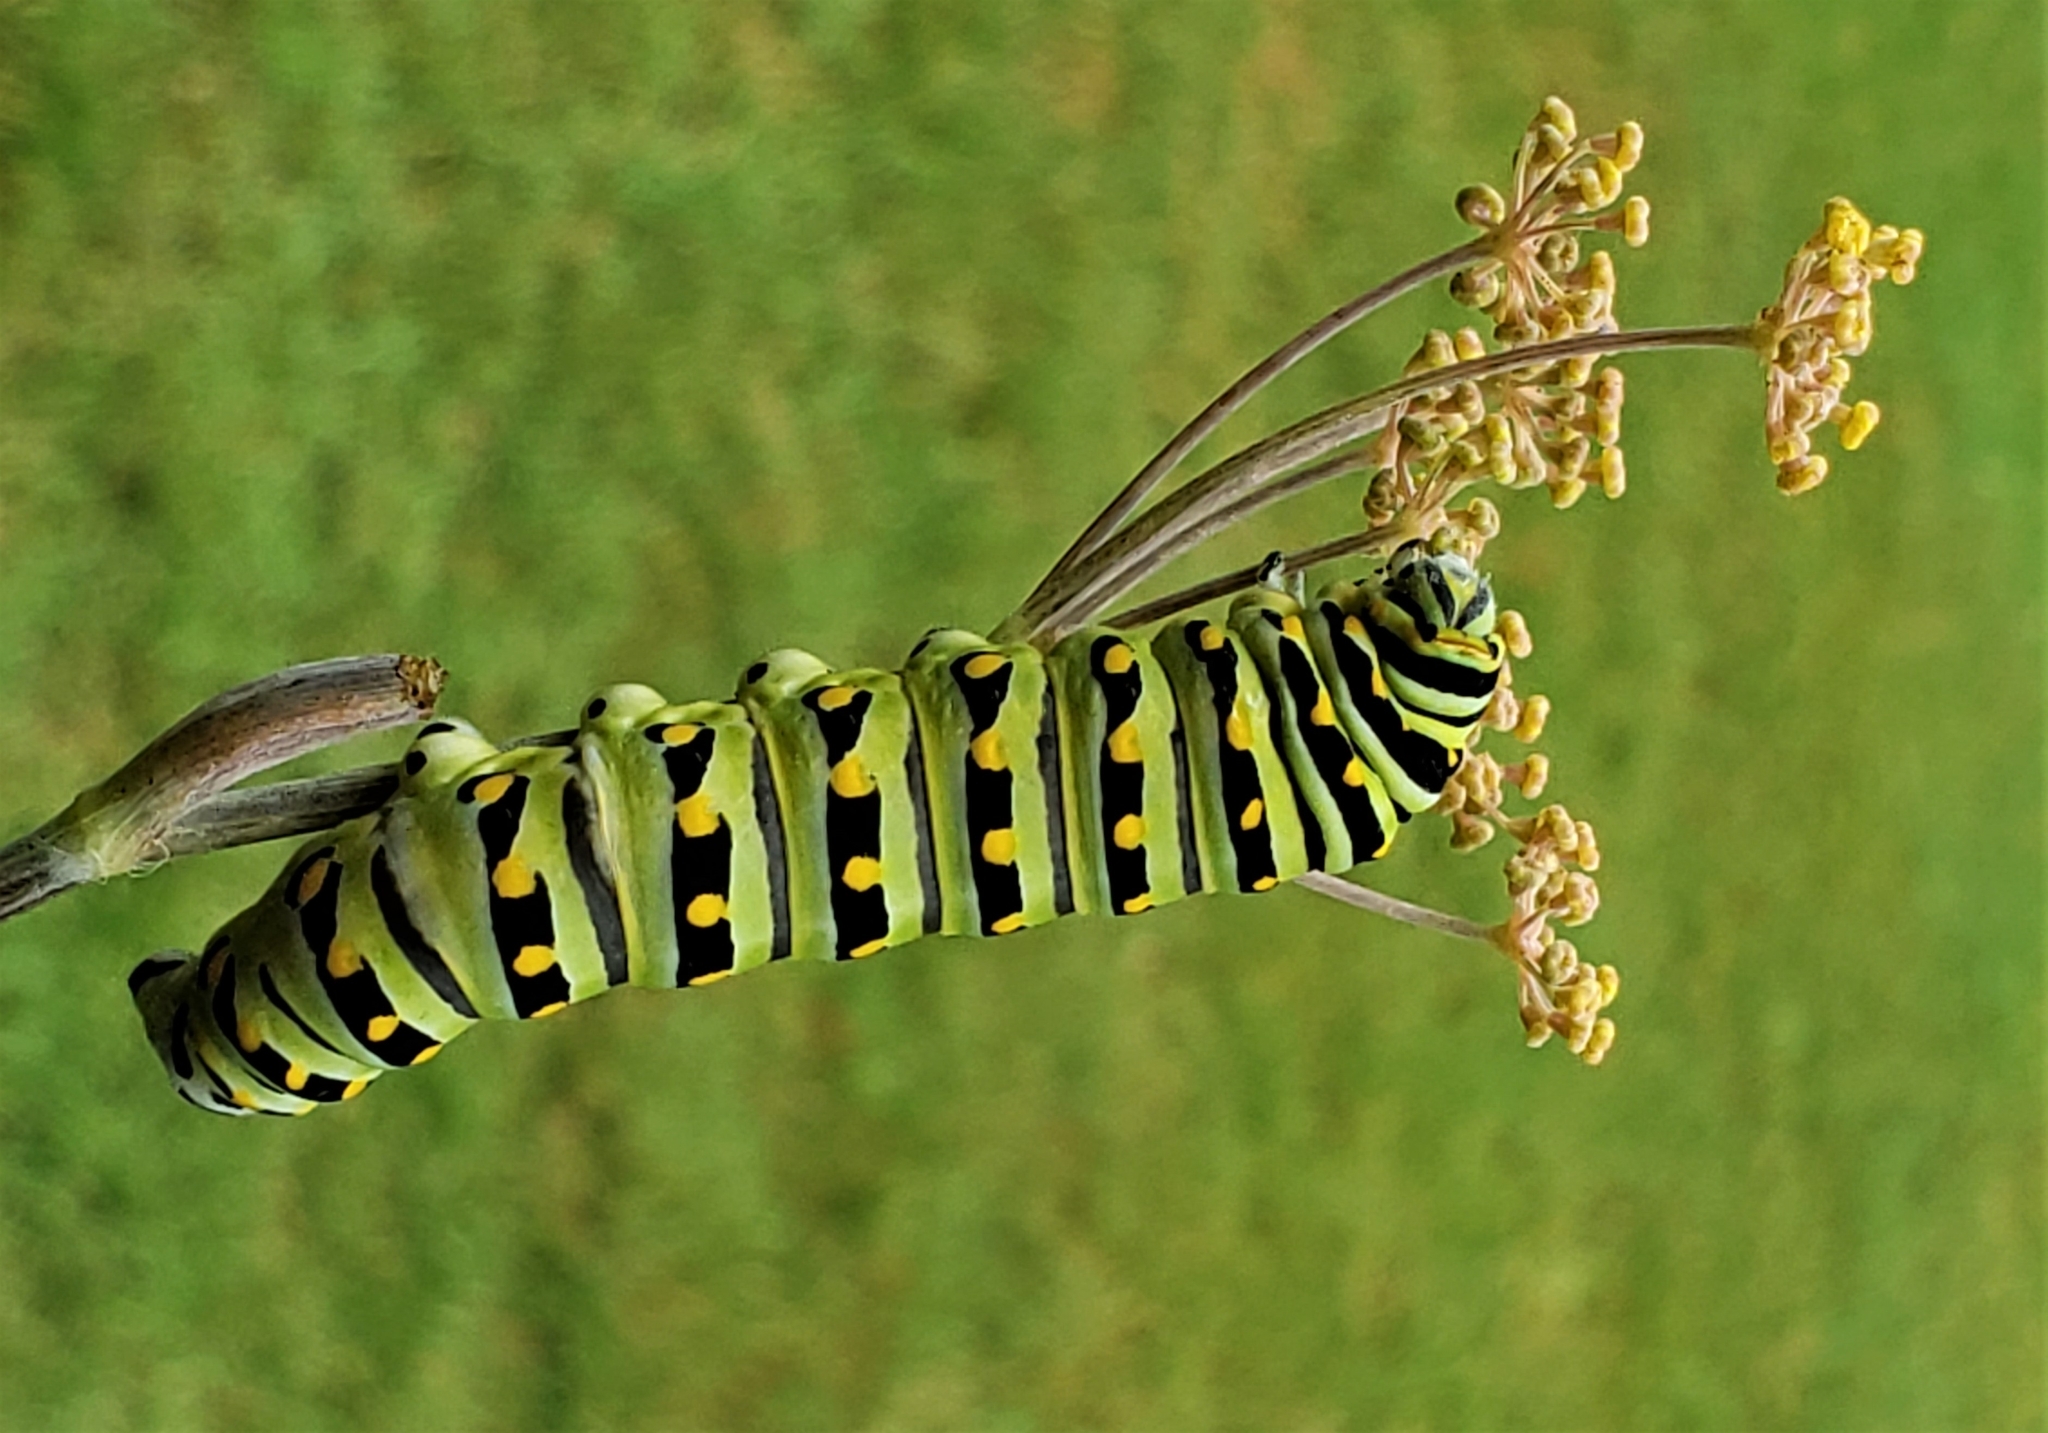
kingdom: Animalia
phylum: Arthropoda
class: Insecta
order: Lepidoptera
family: Papilionidae
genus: Papilio
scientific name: Papilio polyxenes
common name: Black swallowtail
